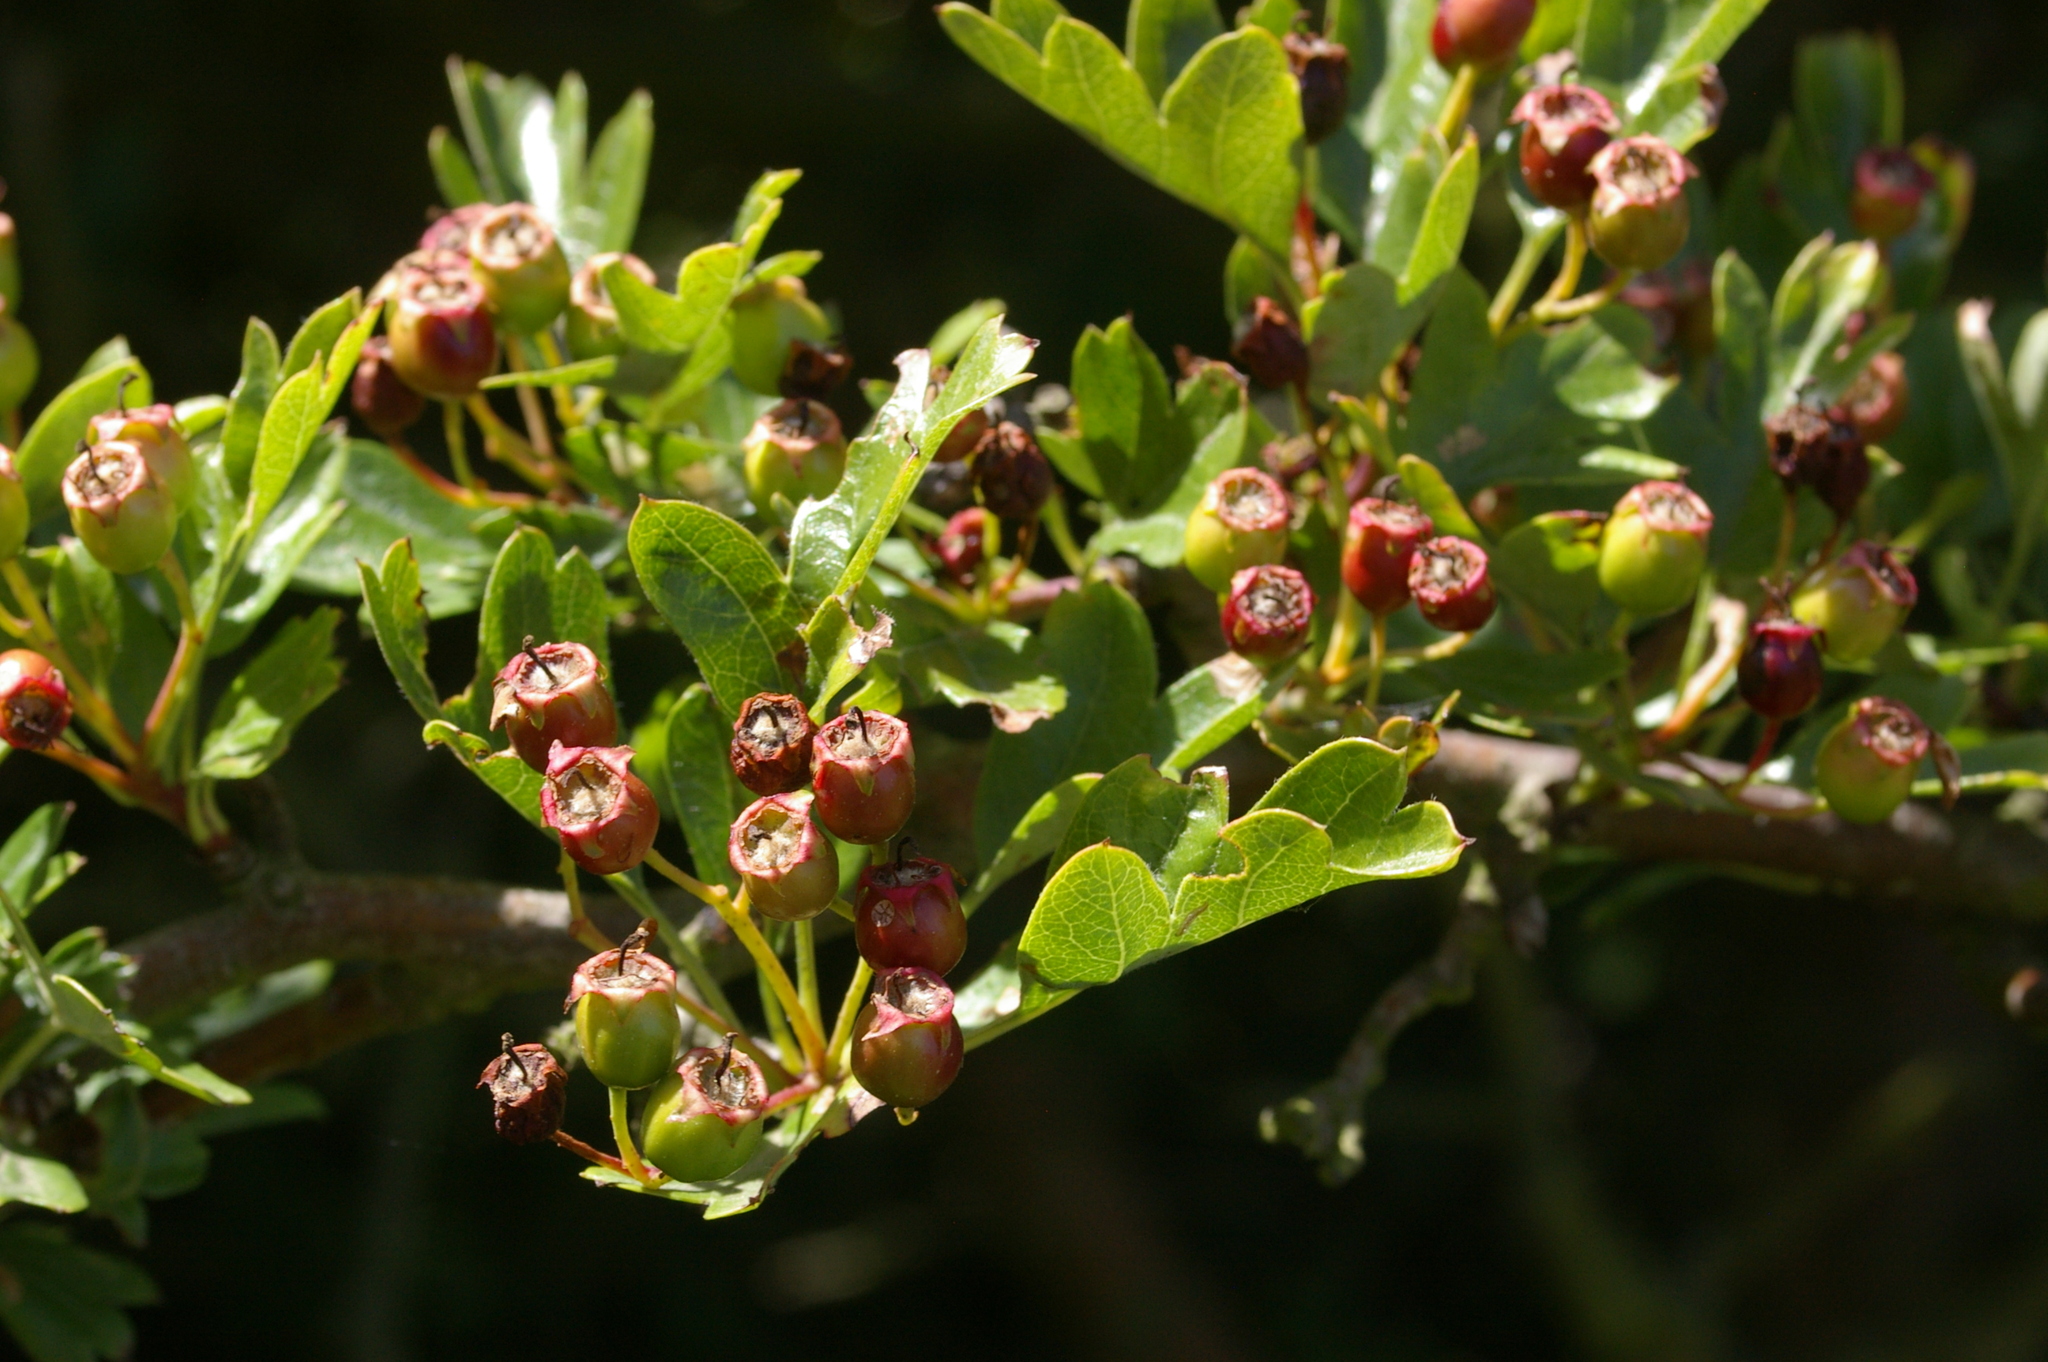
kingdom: Plantae
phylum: Tracheophyta
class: Magnoliopsida
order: Rosales
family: Rosaceae
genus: Crataegus
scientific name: Crataegus monogyna
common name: Hawthorn
